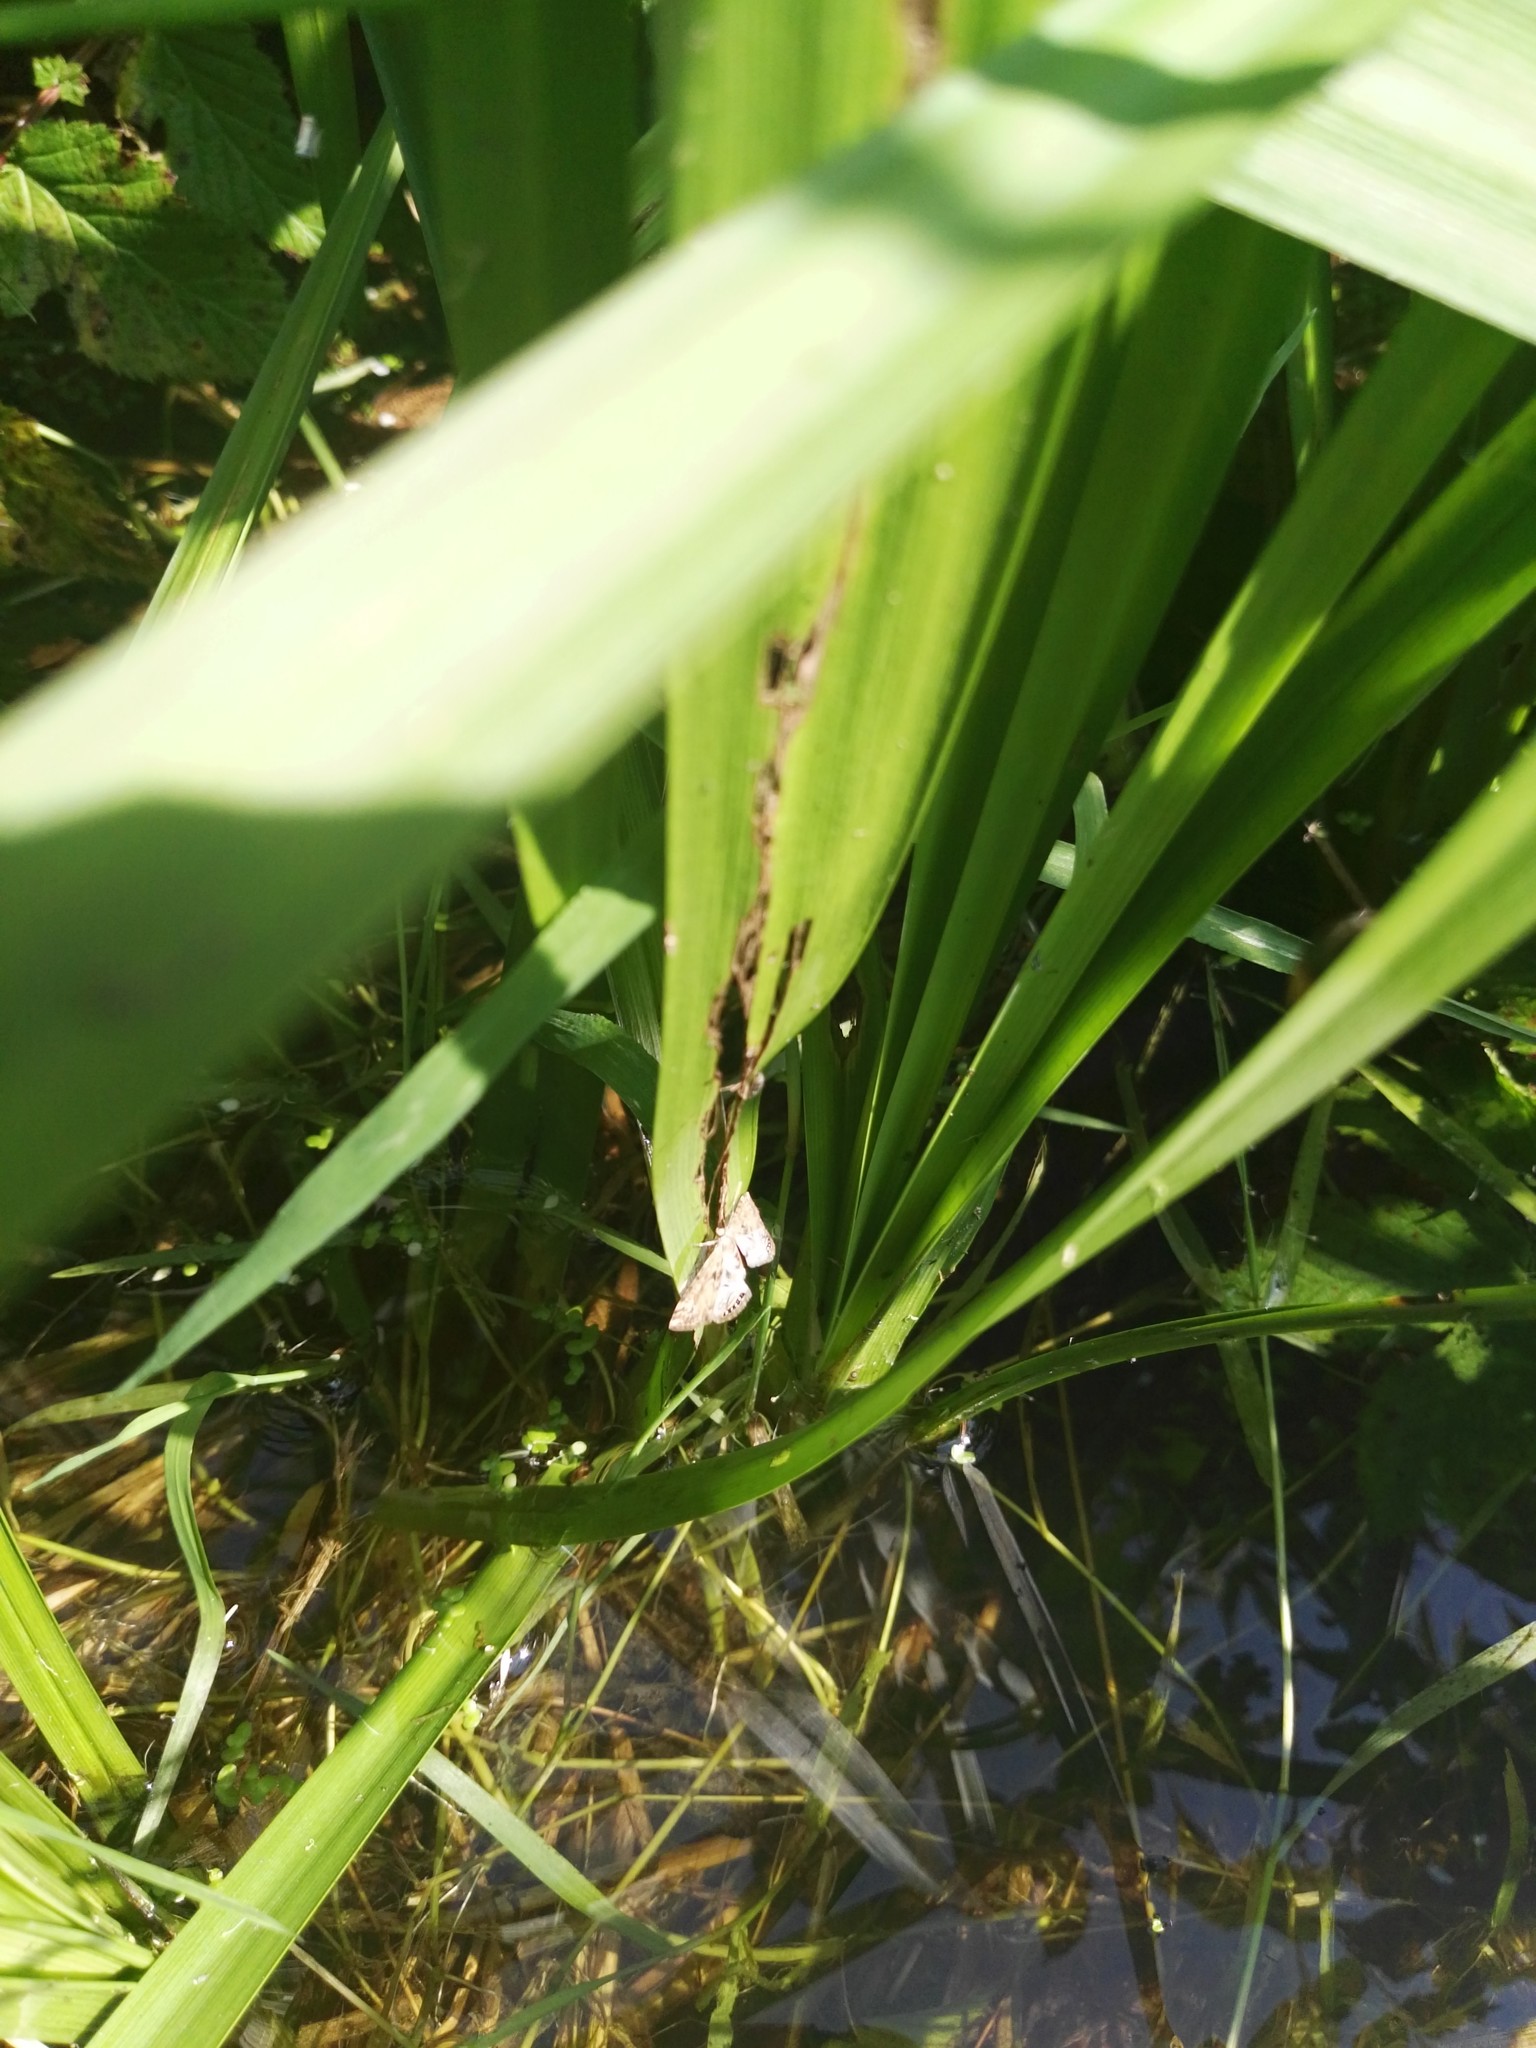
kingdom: Animalia
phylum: Arthropoda
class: Insecta
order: Lepidoptera
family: Crambidae
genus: Cataclysta
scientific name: Cataclysta lemnata
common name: Small china-mark
